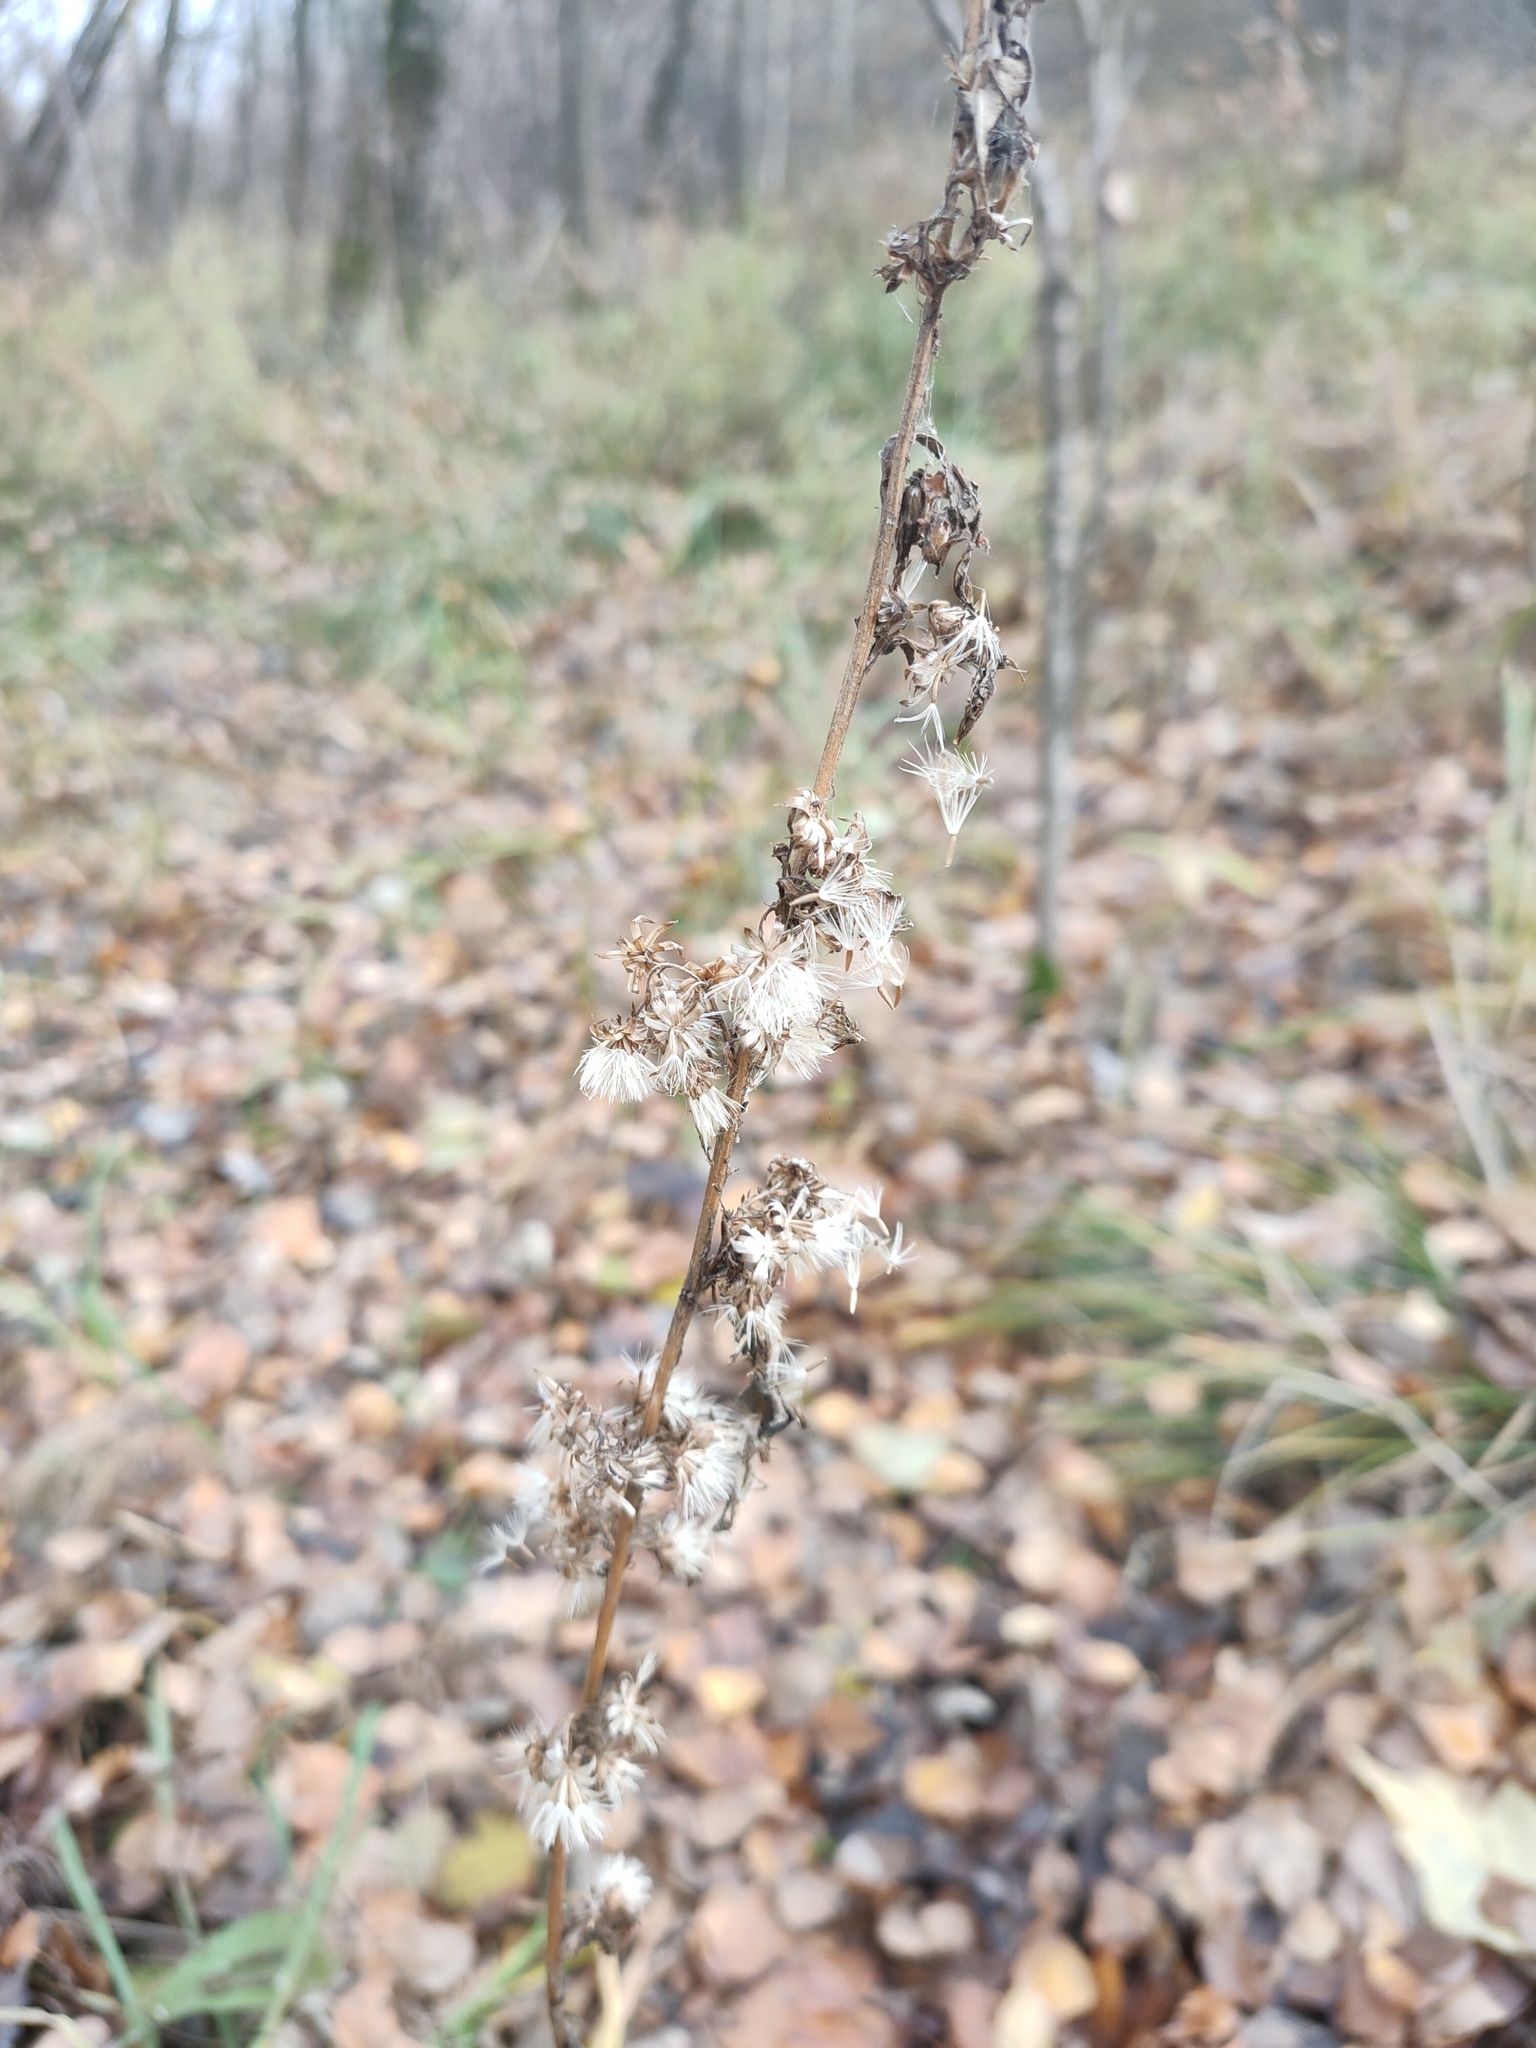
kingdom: Plantae
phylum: Tracheophyta
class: Magnoliopsida
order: Asterales
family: Asteraceae
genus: Solidago
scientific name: Solidago virgaurea
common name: Goldenrod
